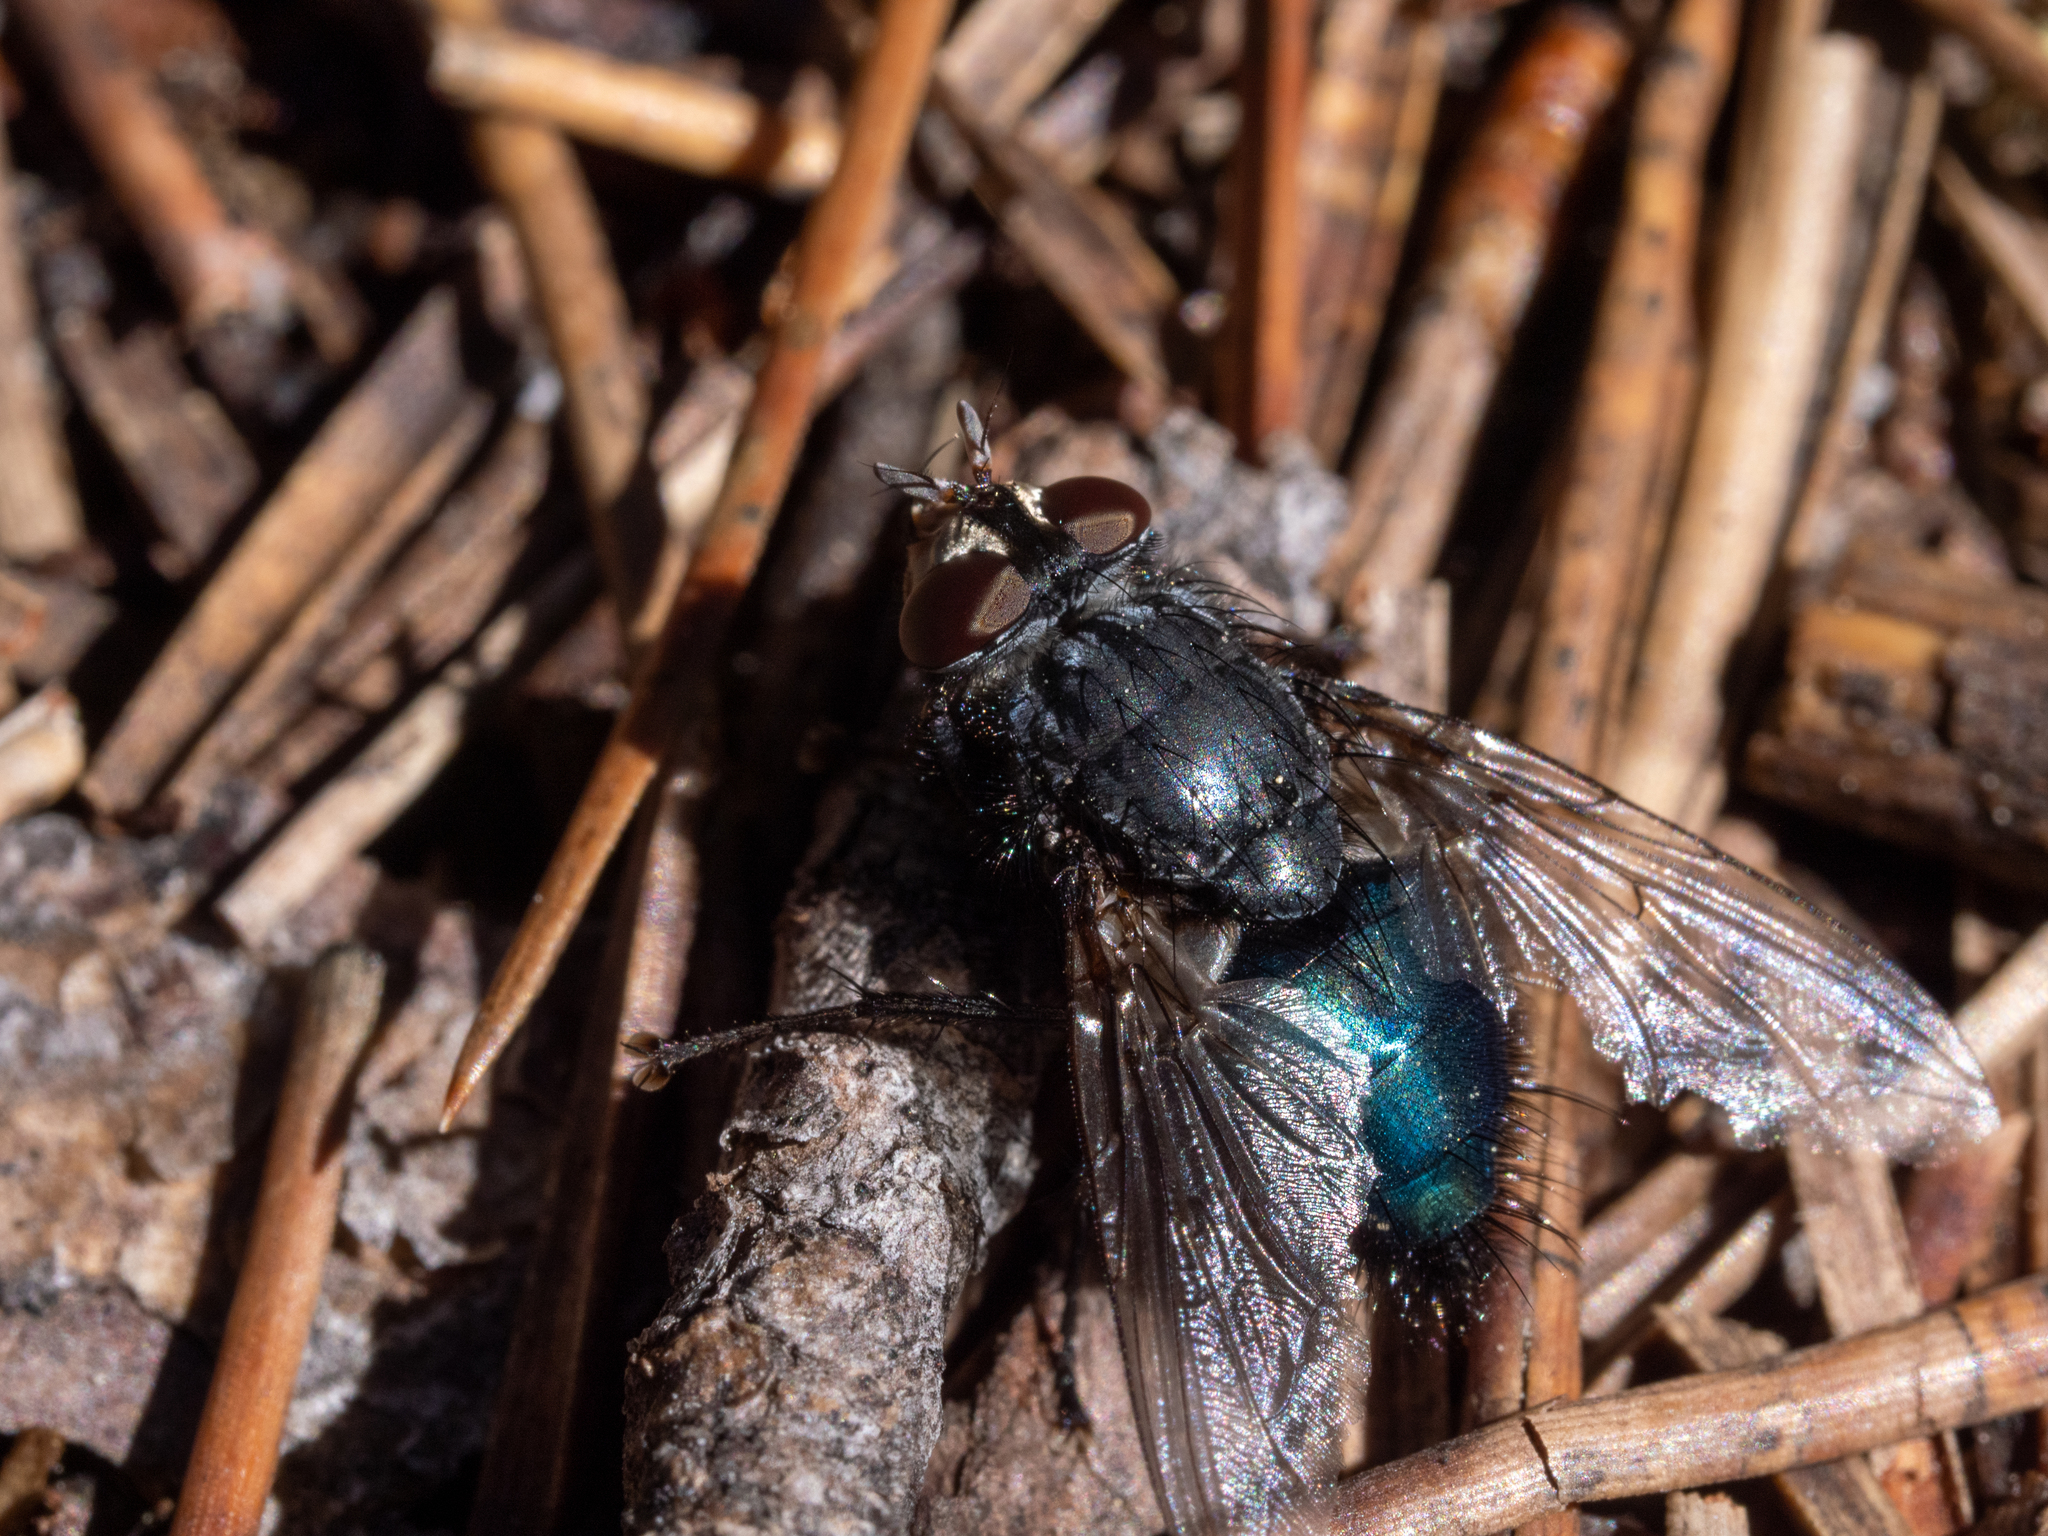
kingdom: Animalia
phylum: Arthropoda
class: Insecta
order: Diptera
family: Calliphoridae
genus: Cynomya
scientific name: Cynomya cadaverina
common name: Shiny blue bottle fly
